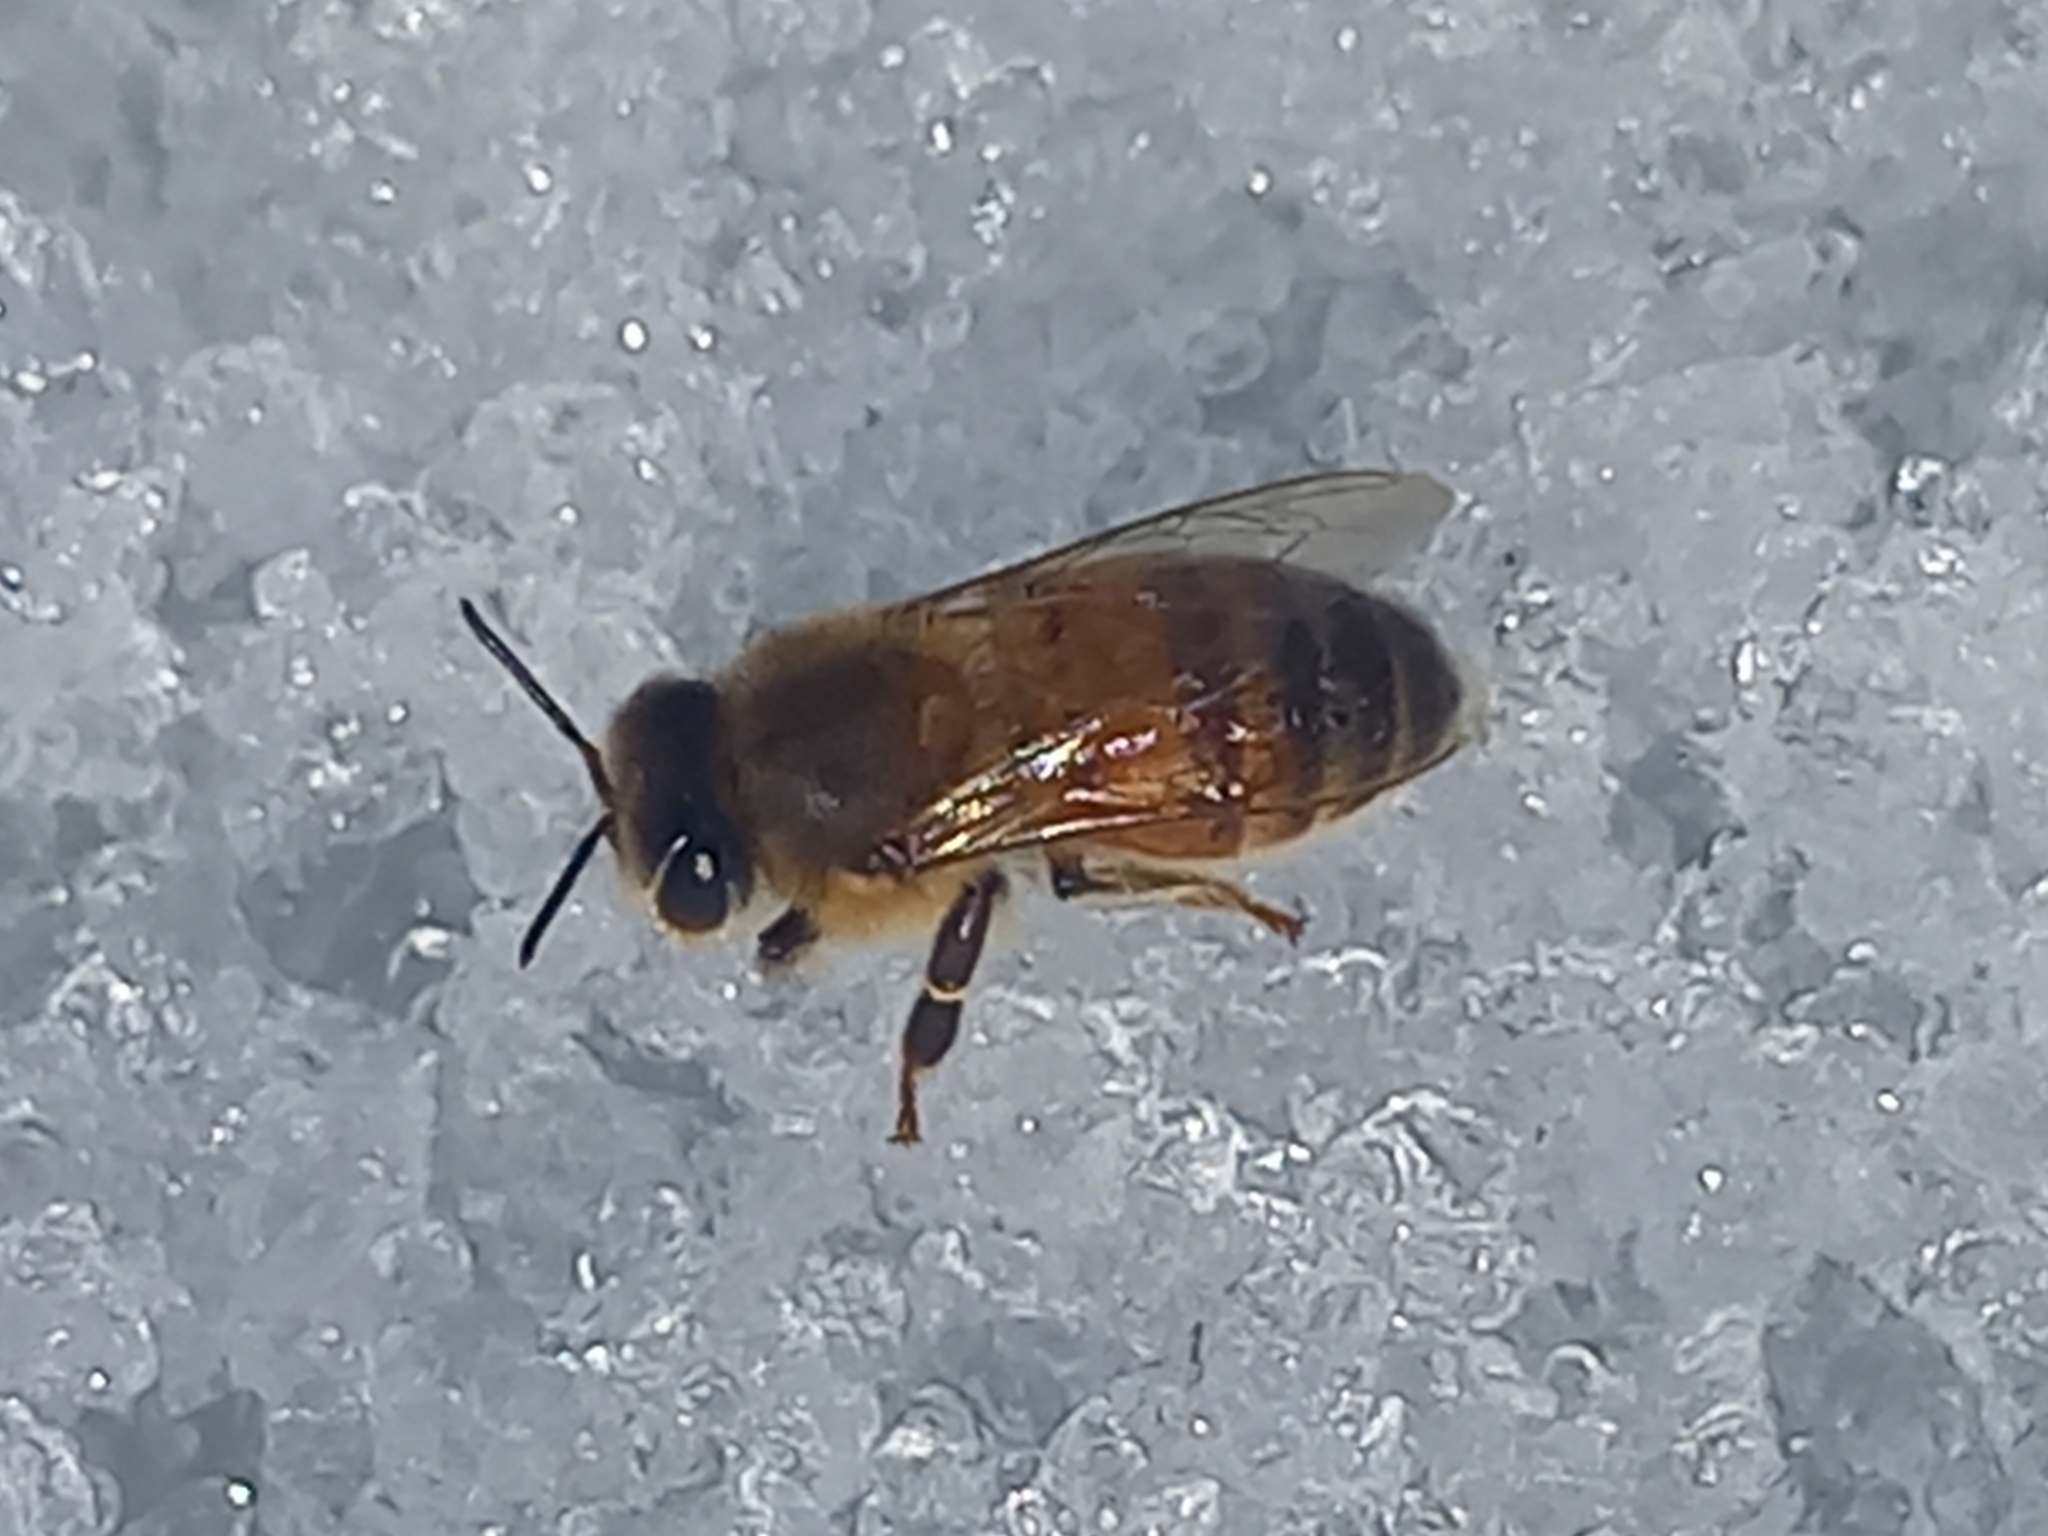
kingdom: Animalia
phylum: Arthropoda
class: Insecta
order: Hymenoptera
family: Apidae
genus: Apis
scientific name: Apis mellifera
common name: Honey bee
